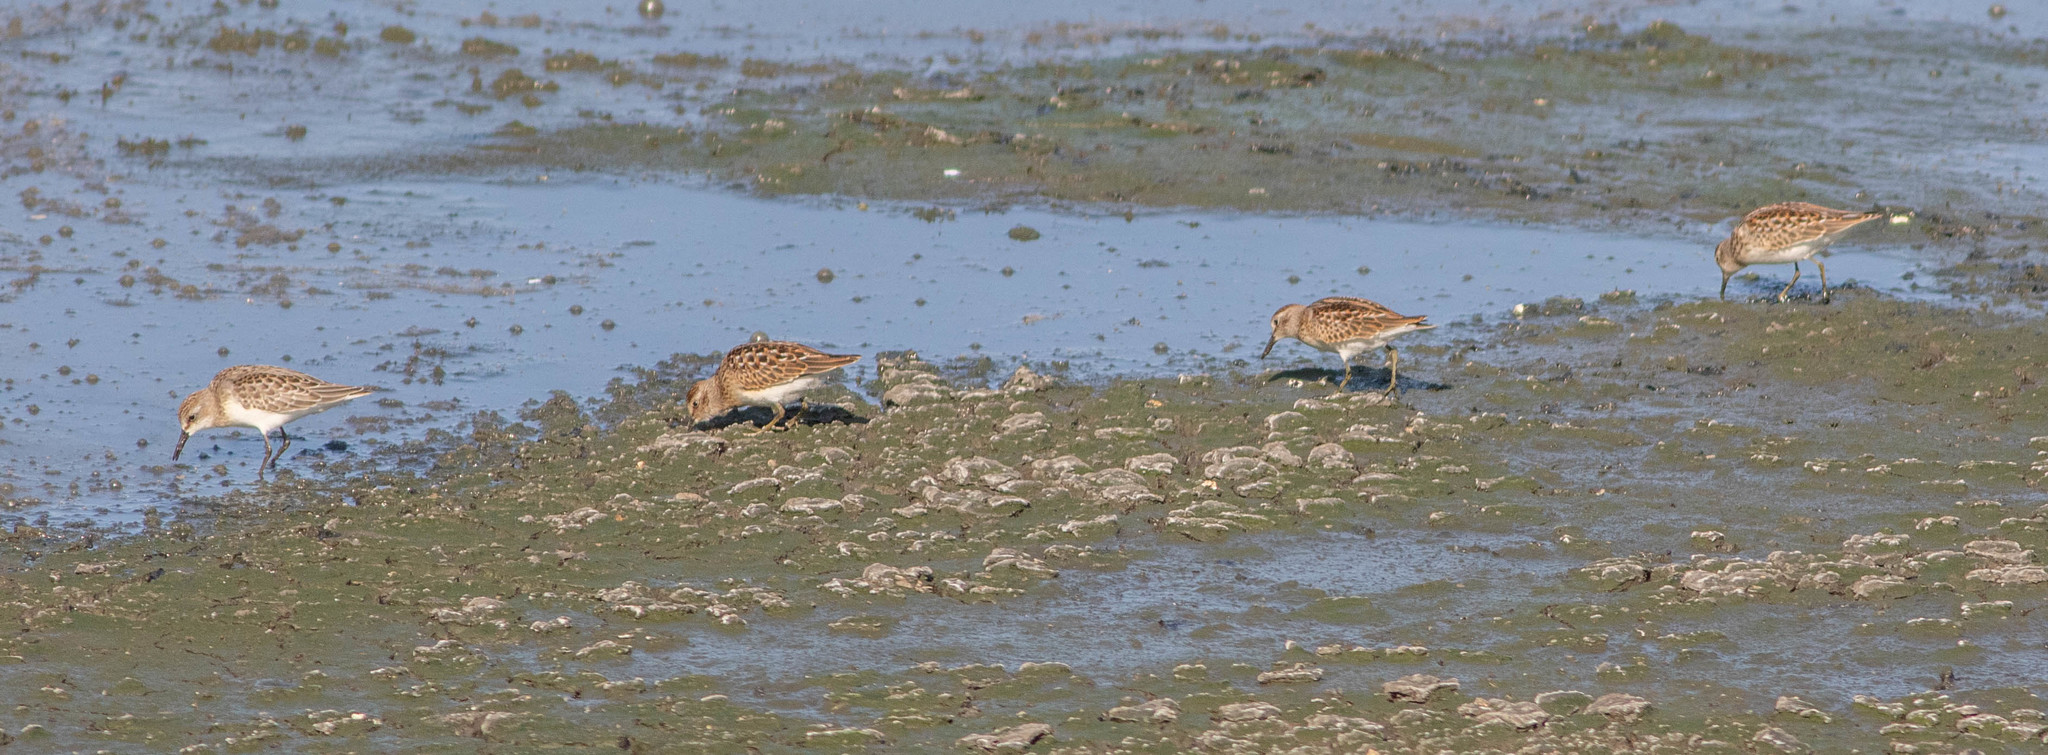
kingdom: Animalia
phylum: Chordata
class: Aves
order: Charadriiformes
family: Scolopacidae
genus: Calidris
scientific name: Calidris minutilla
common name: Least sandpiper
